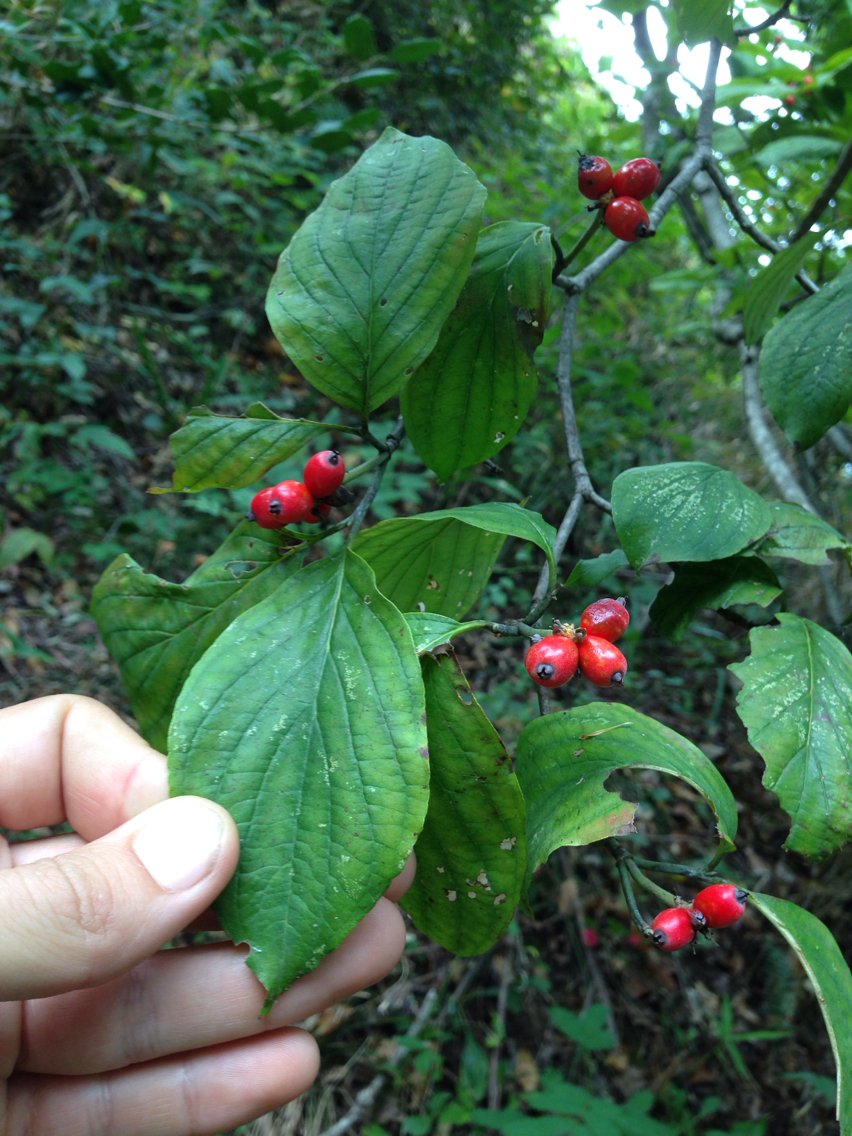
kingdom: Plantae
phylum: Tracheophyta
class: Magnoliopsida
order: Cornales
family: Cornaceae
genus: Cornus
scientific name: Cornus florida
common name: Flowering dogwood
